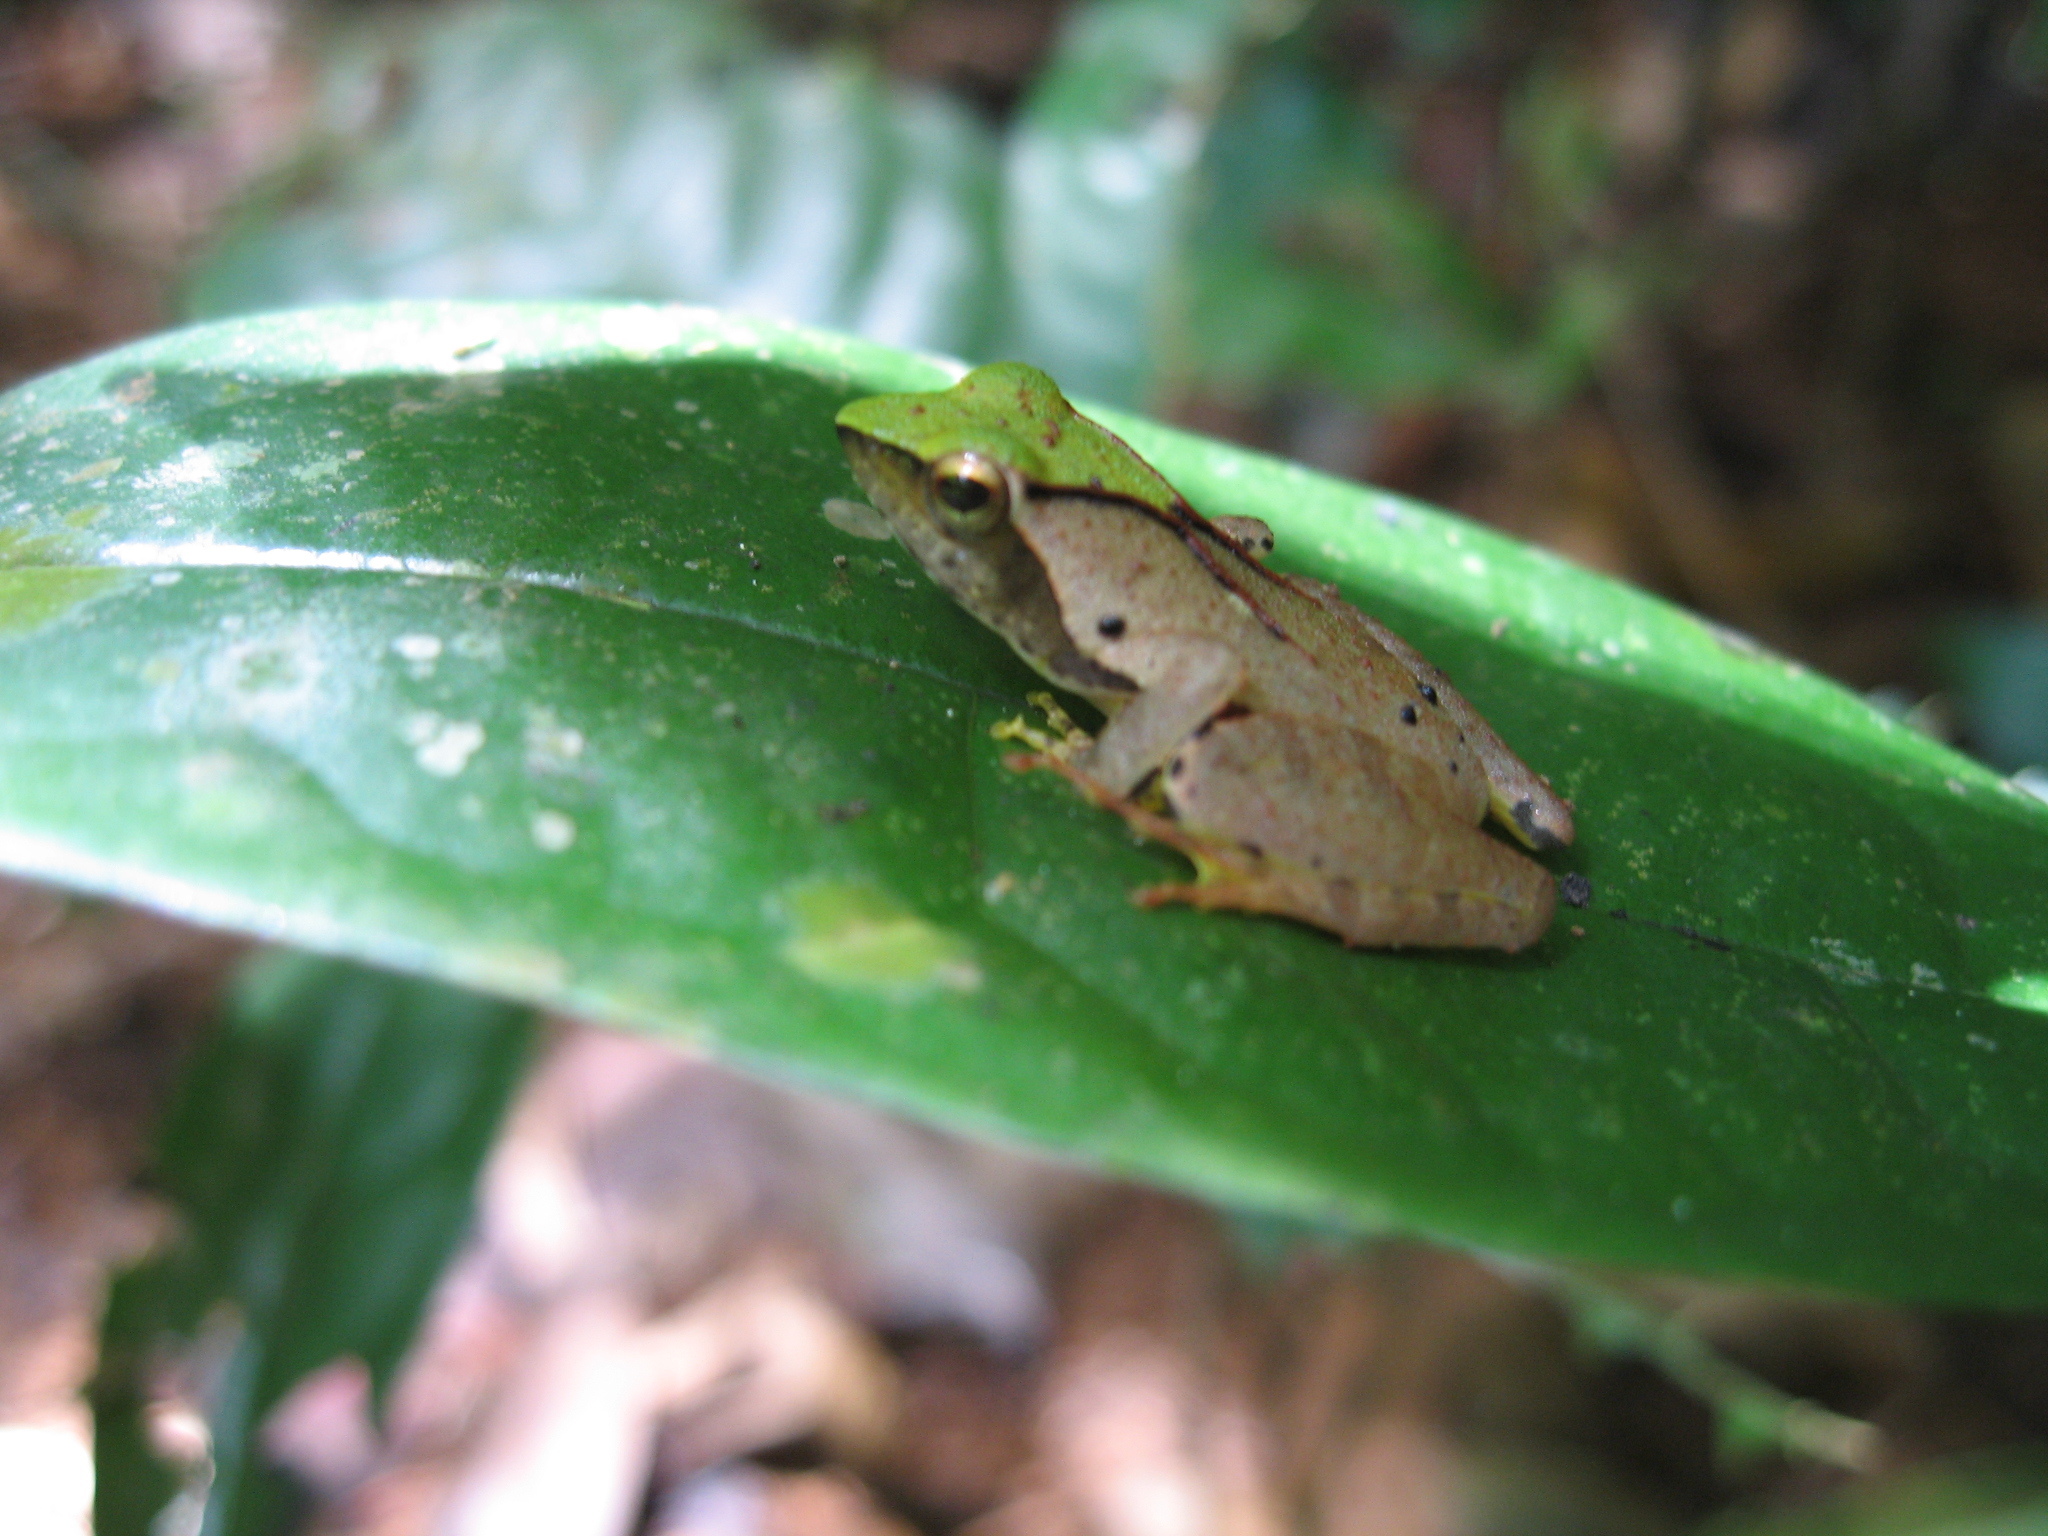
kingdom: Animalia
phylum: Chordata
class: Amphibia
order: Anura
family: Phrynobatrachidae
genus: Phrynobatrachus
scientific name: Phrynobatrachus plicatus
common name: Coast river frog
